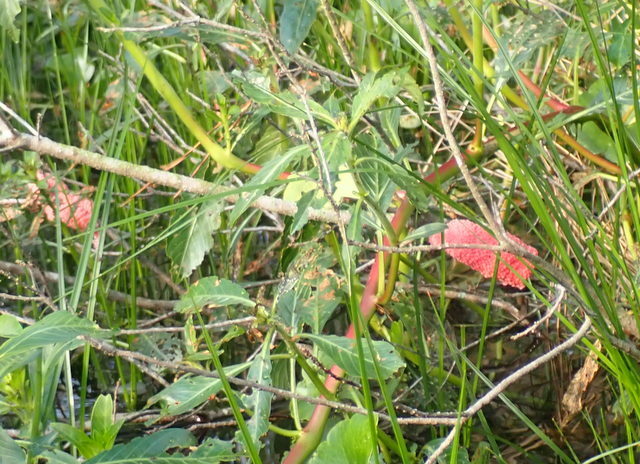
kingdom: Animalia
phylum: Mollusca
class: Gastropoda
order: Architaenioglossa
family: Ampullariidae
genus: Pomacea
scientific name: Pomacea maculata
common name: Giant applesnail
